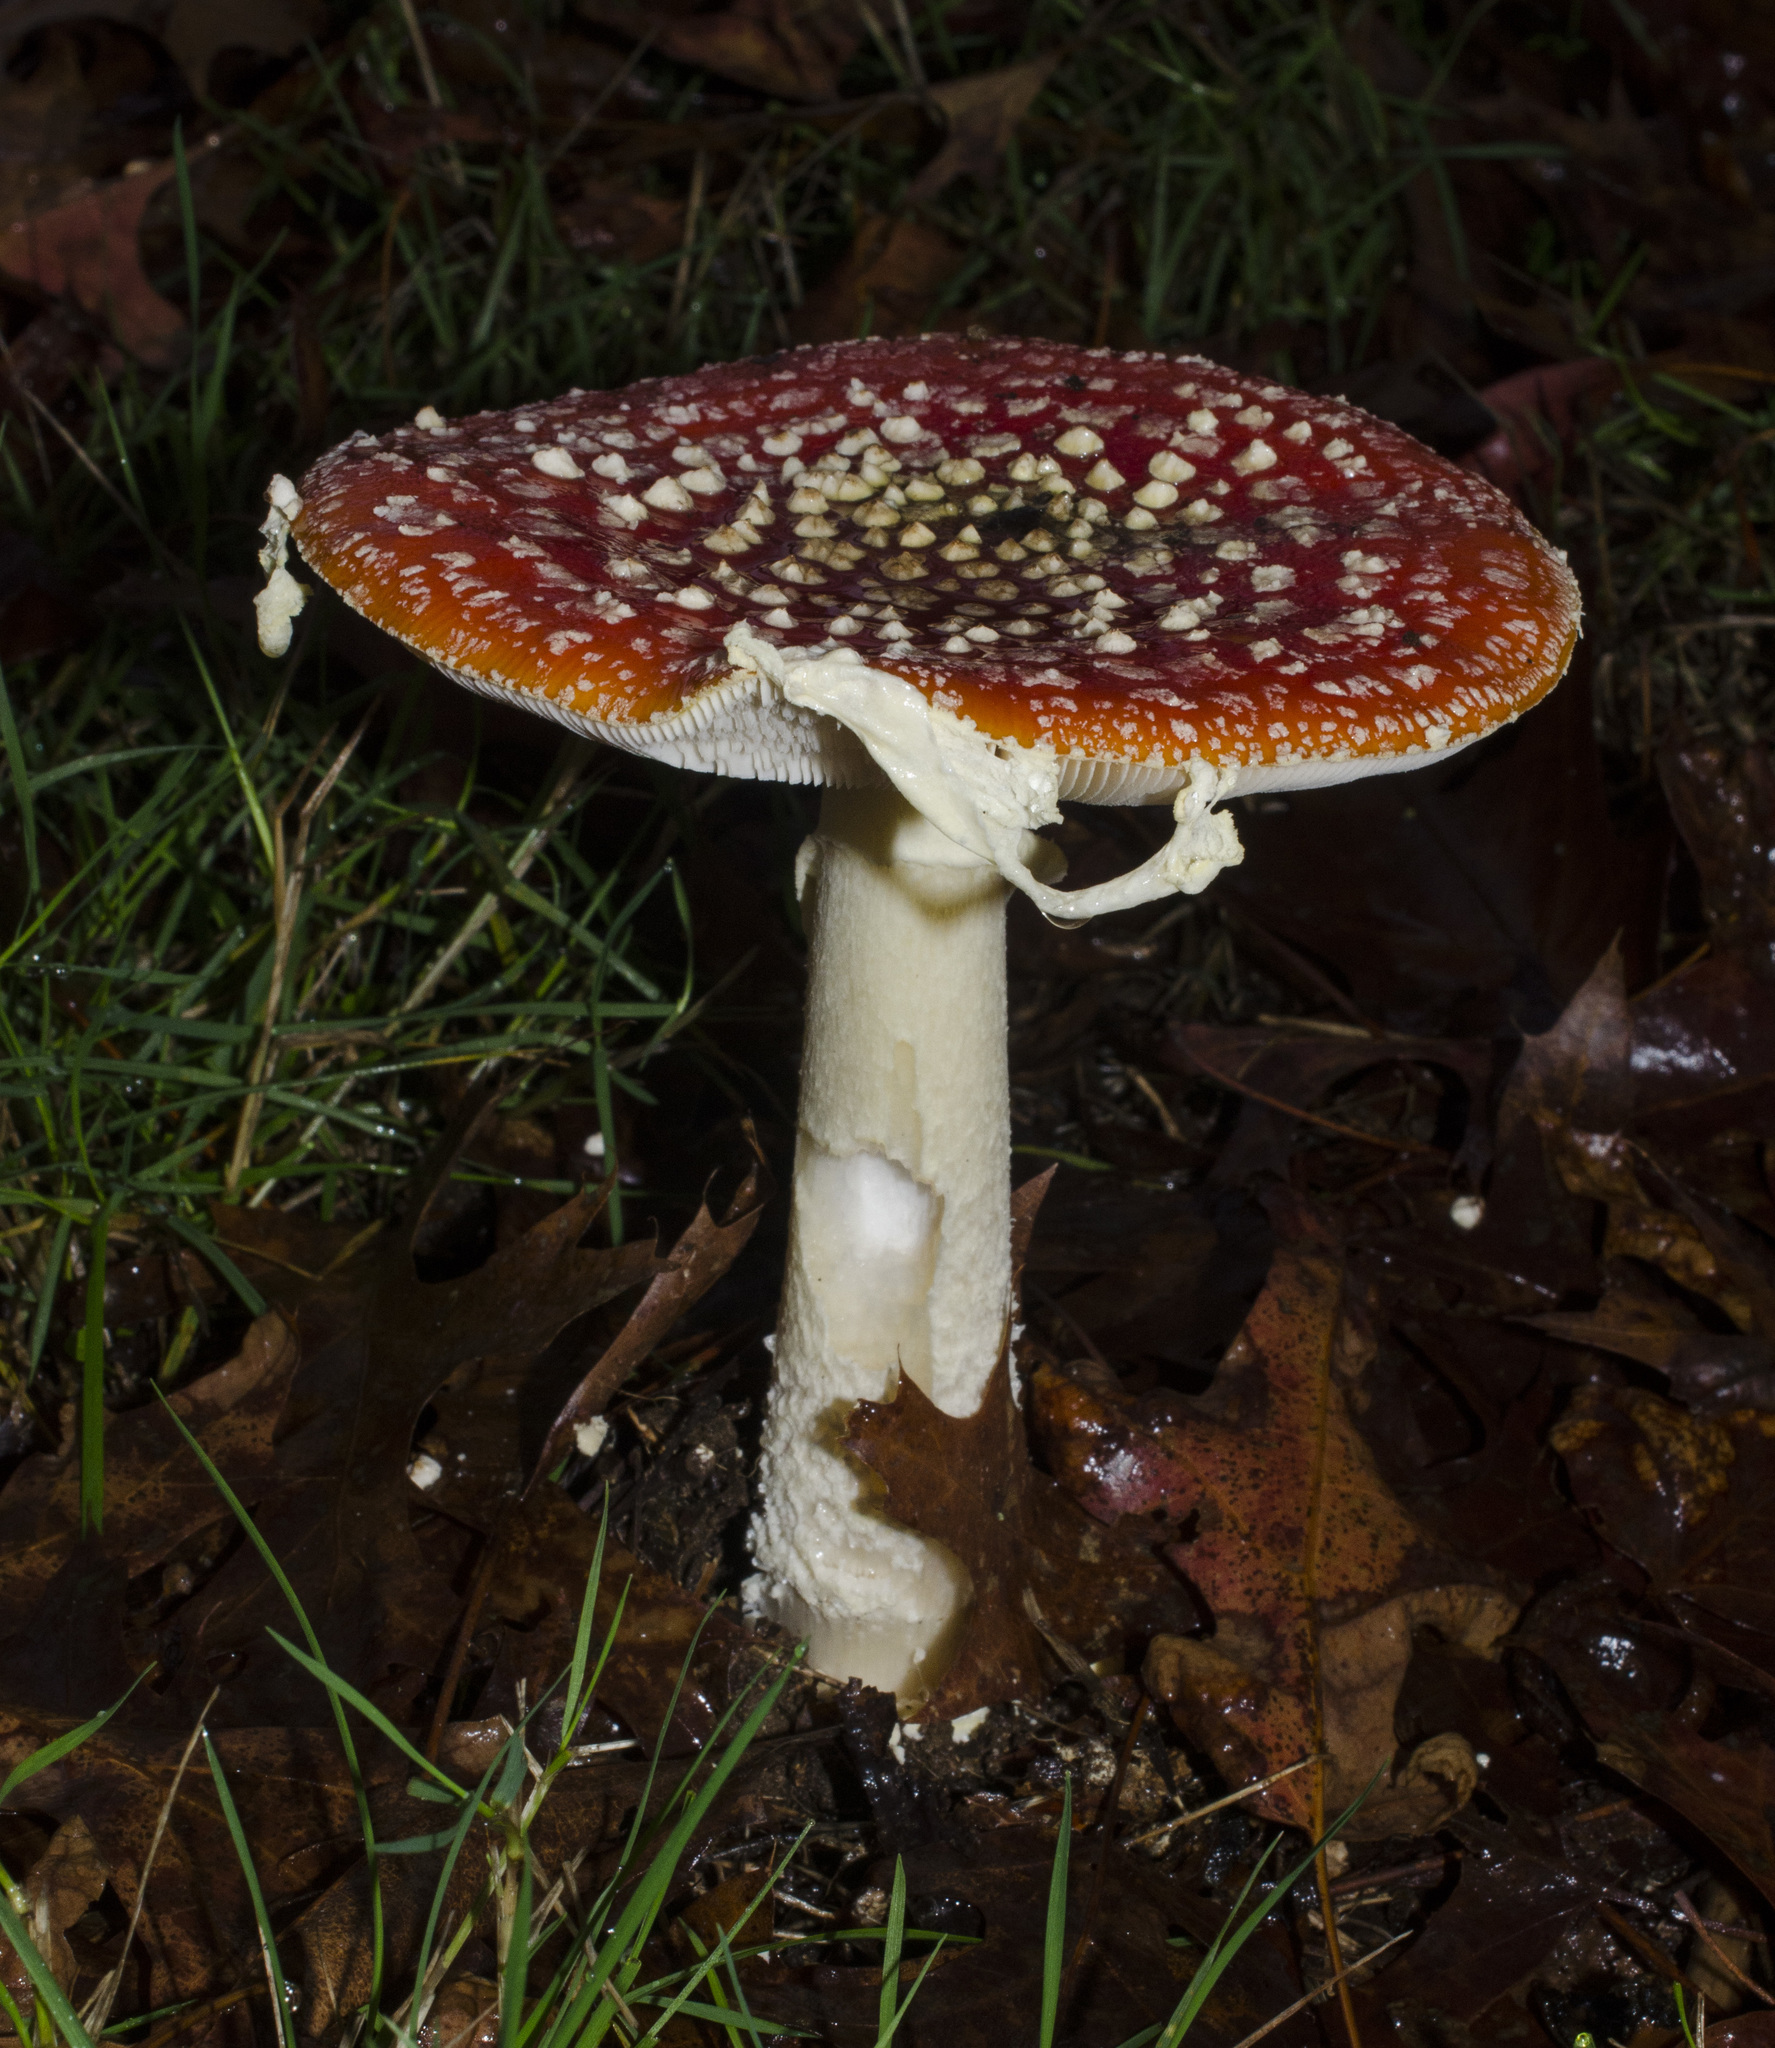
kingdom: Fungi
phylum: Basidiomycota
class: Agaricomycetes
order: Agaricales
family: Amanitaceae
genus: Amanita
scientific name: Amanita muscaria
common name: Fly agaric
